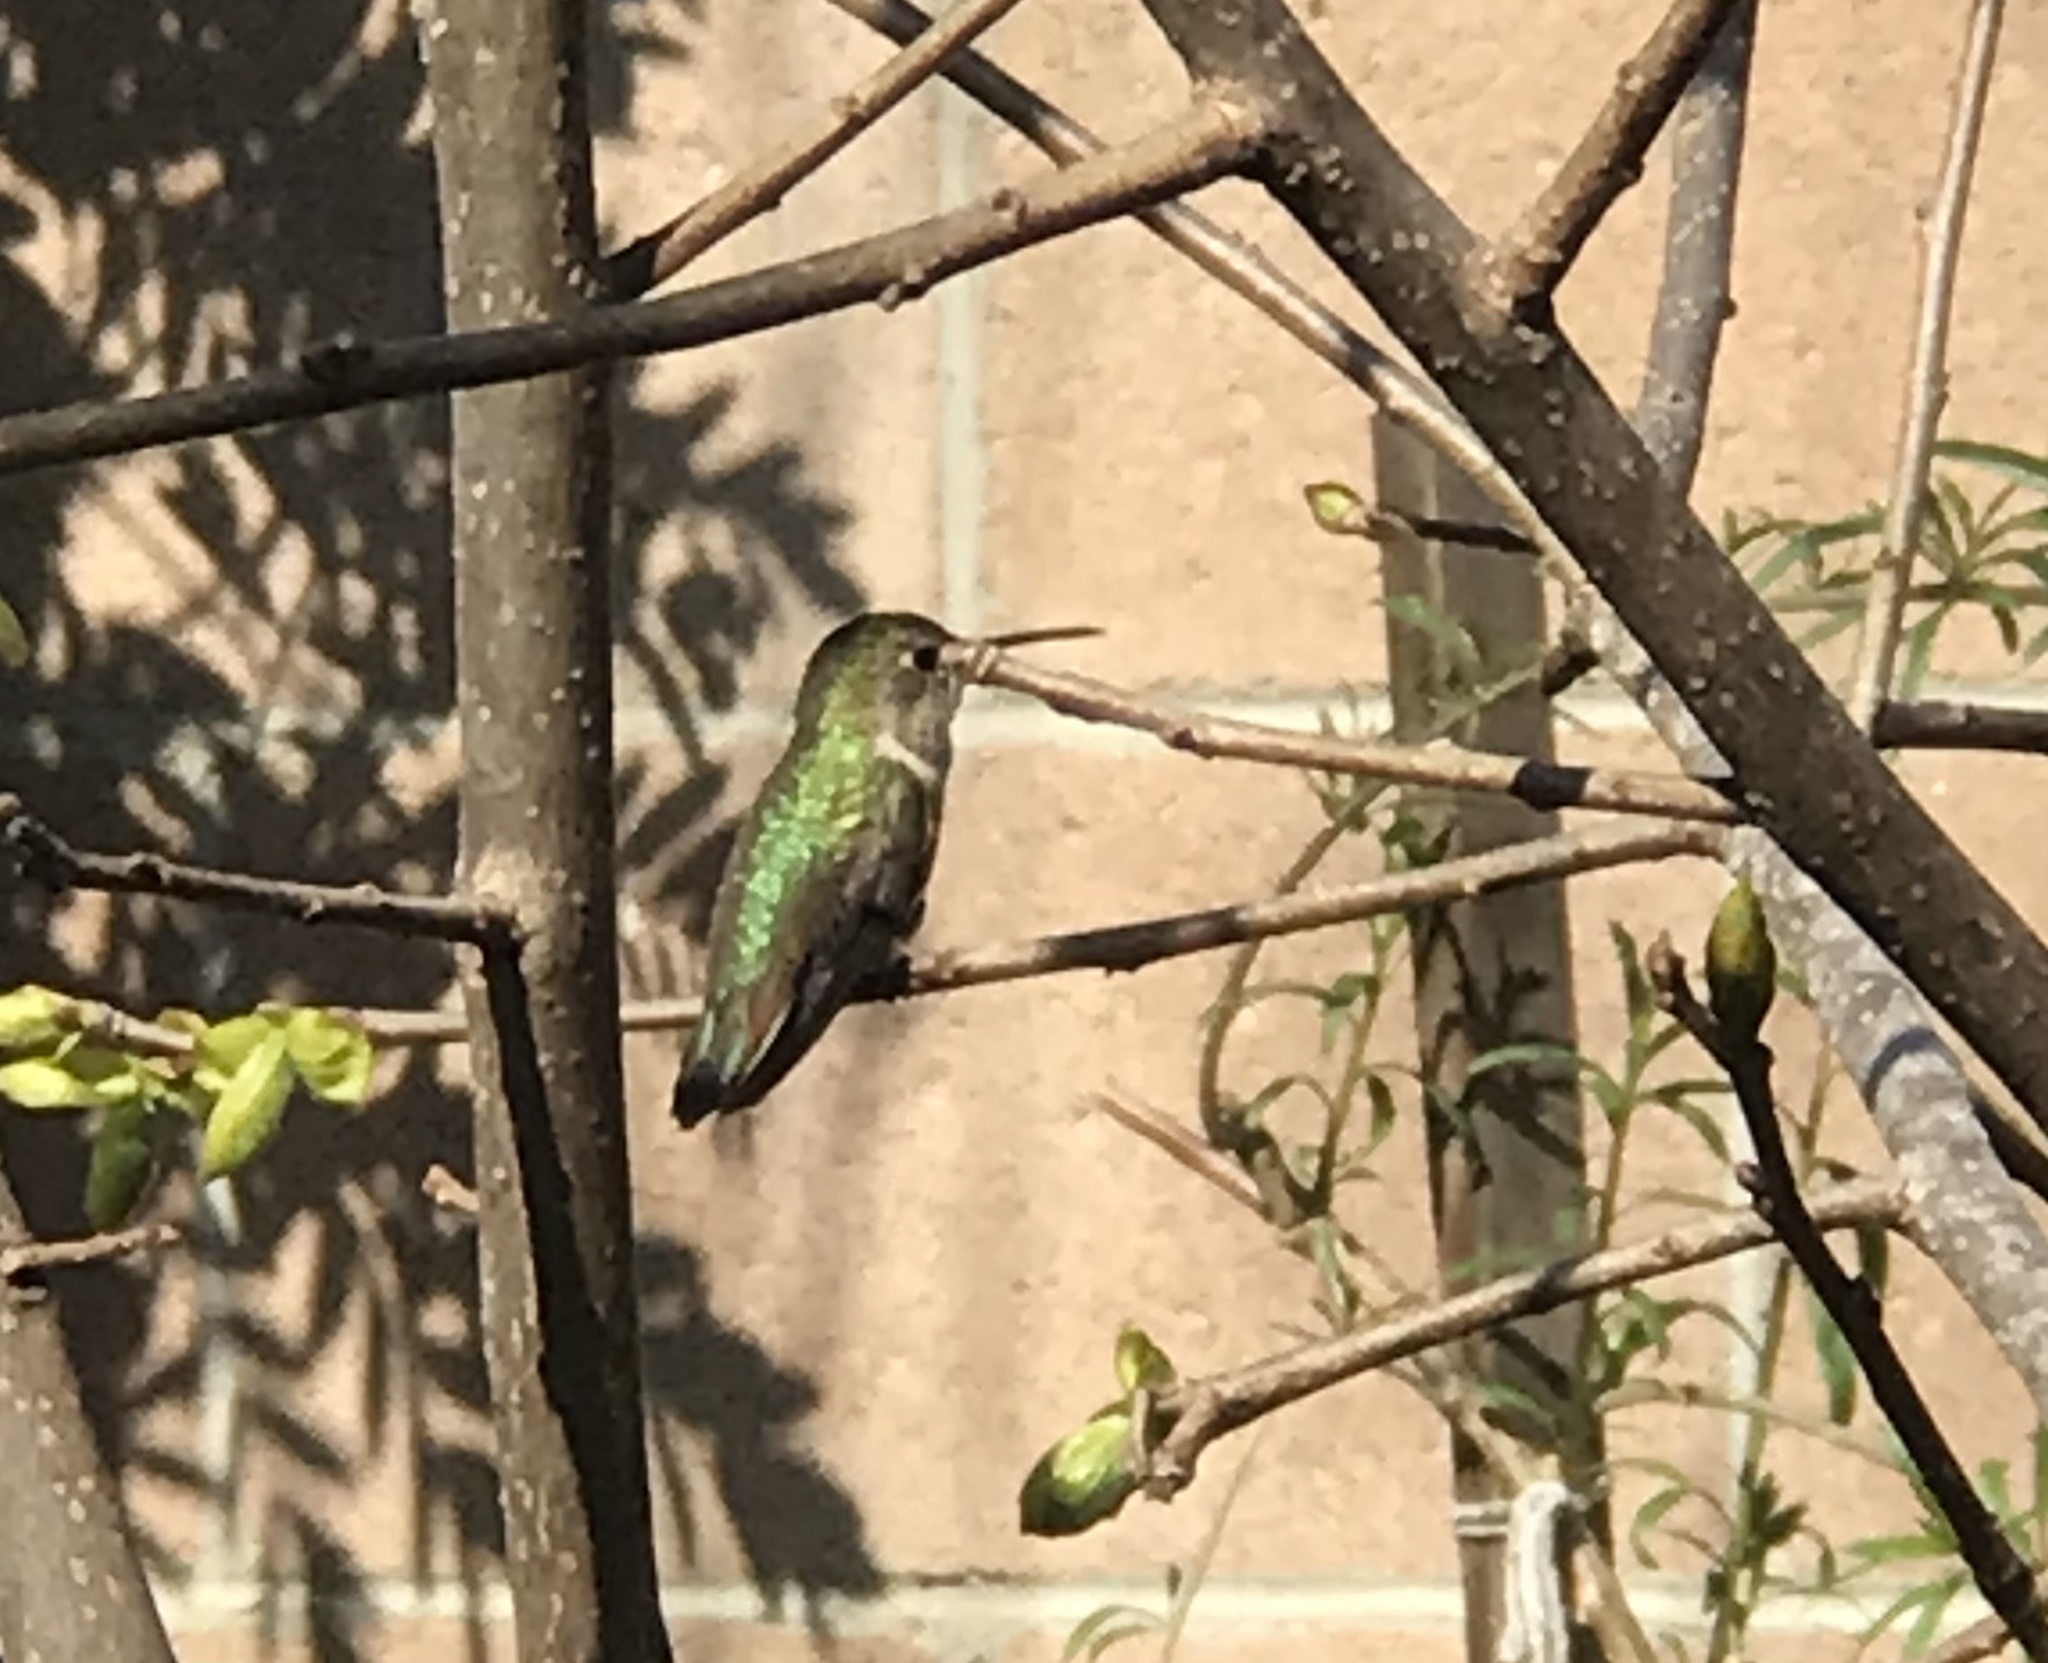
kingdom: Animalia
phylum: Chordata
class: Aves
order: Apodiformes
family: Trochilidae
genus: Calypte
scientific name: Calypte anna
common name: Anna's hummingbird
